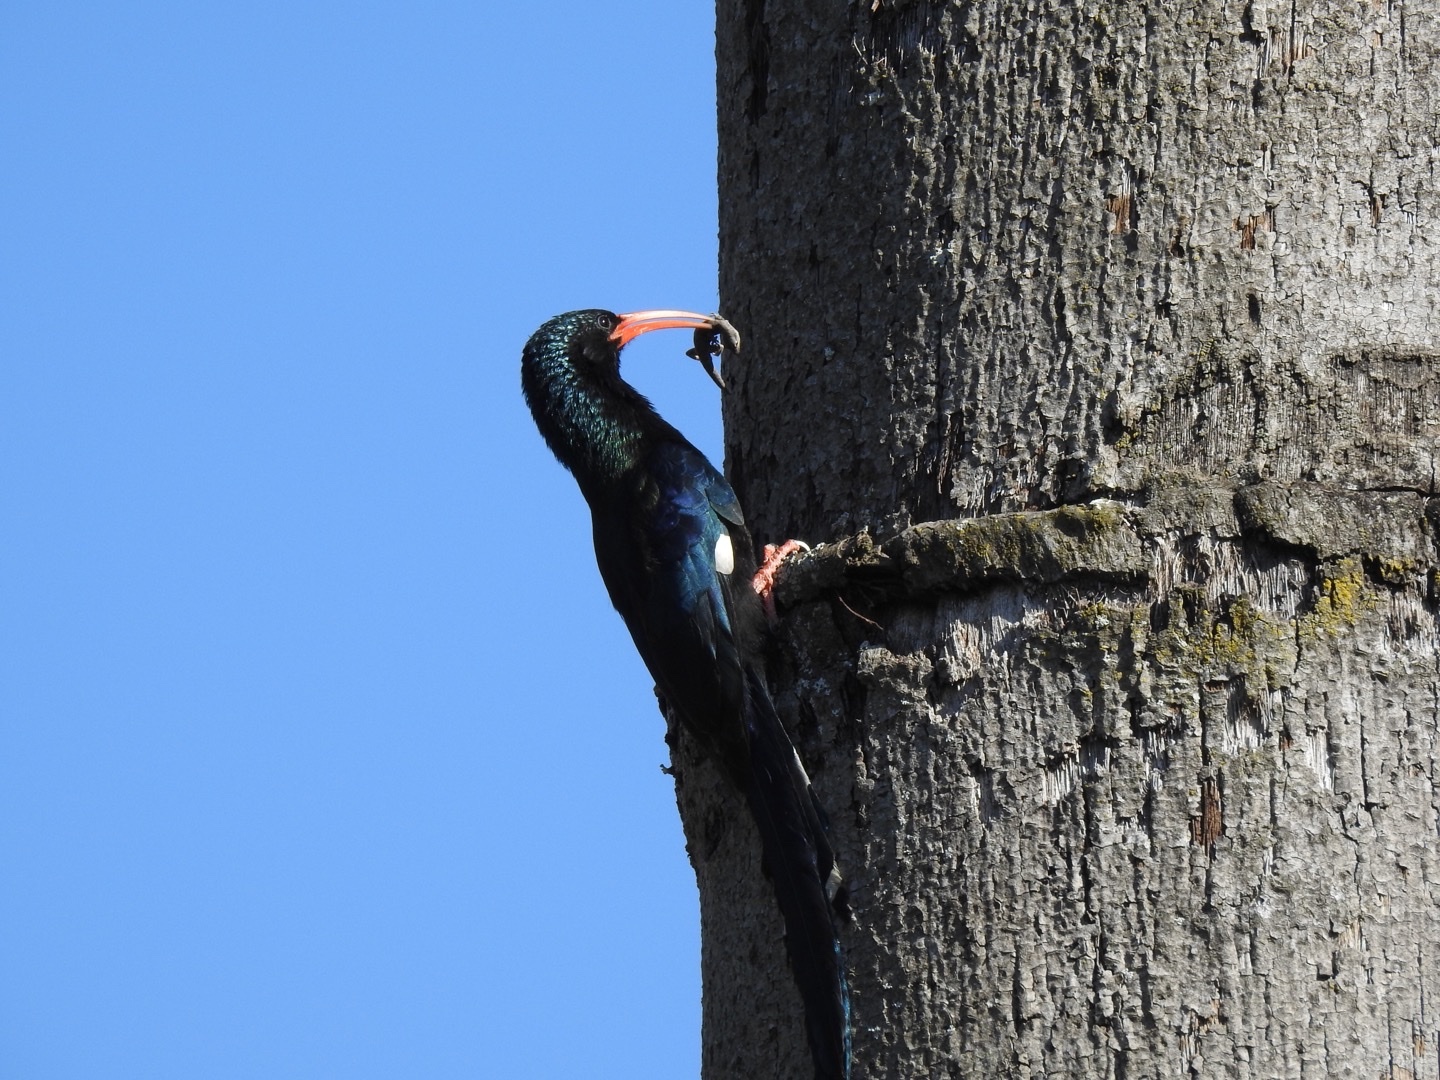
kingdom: Animalia
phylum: Chordata
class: Aves
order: Bucerotiformes
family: Phoeniculidae
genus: Phoeniculus
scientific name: Phoeniculus purpureus
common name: Green woodhoopoe
